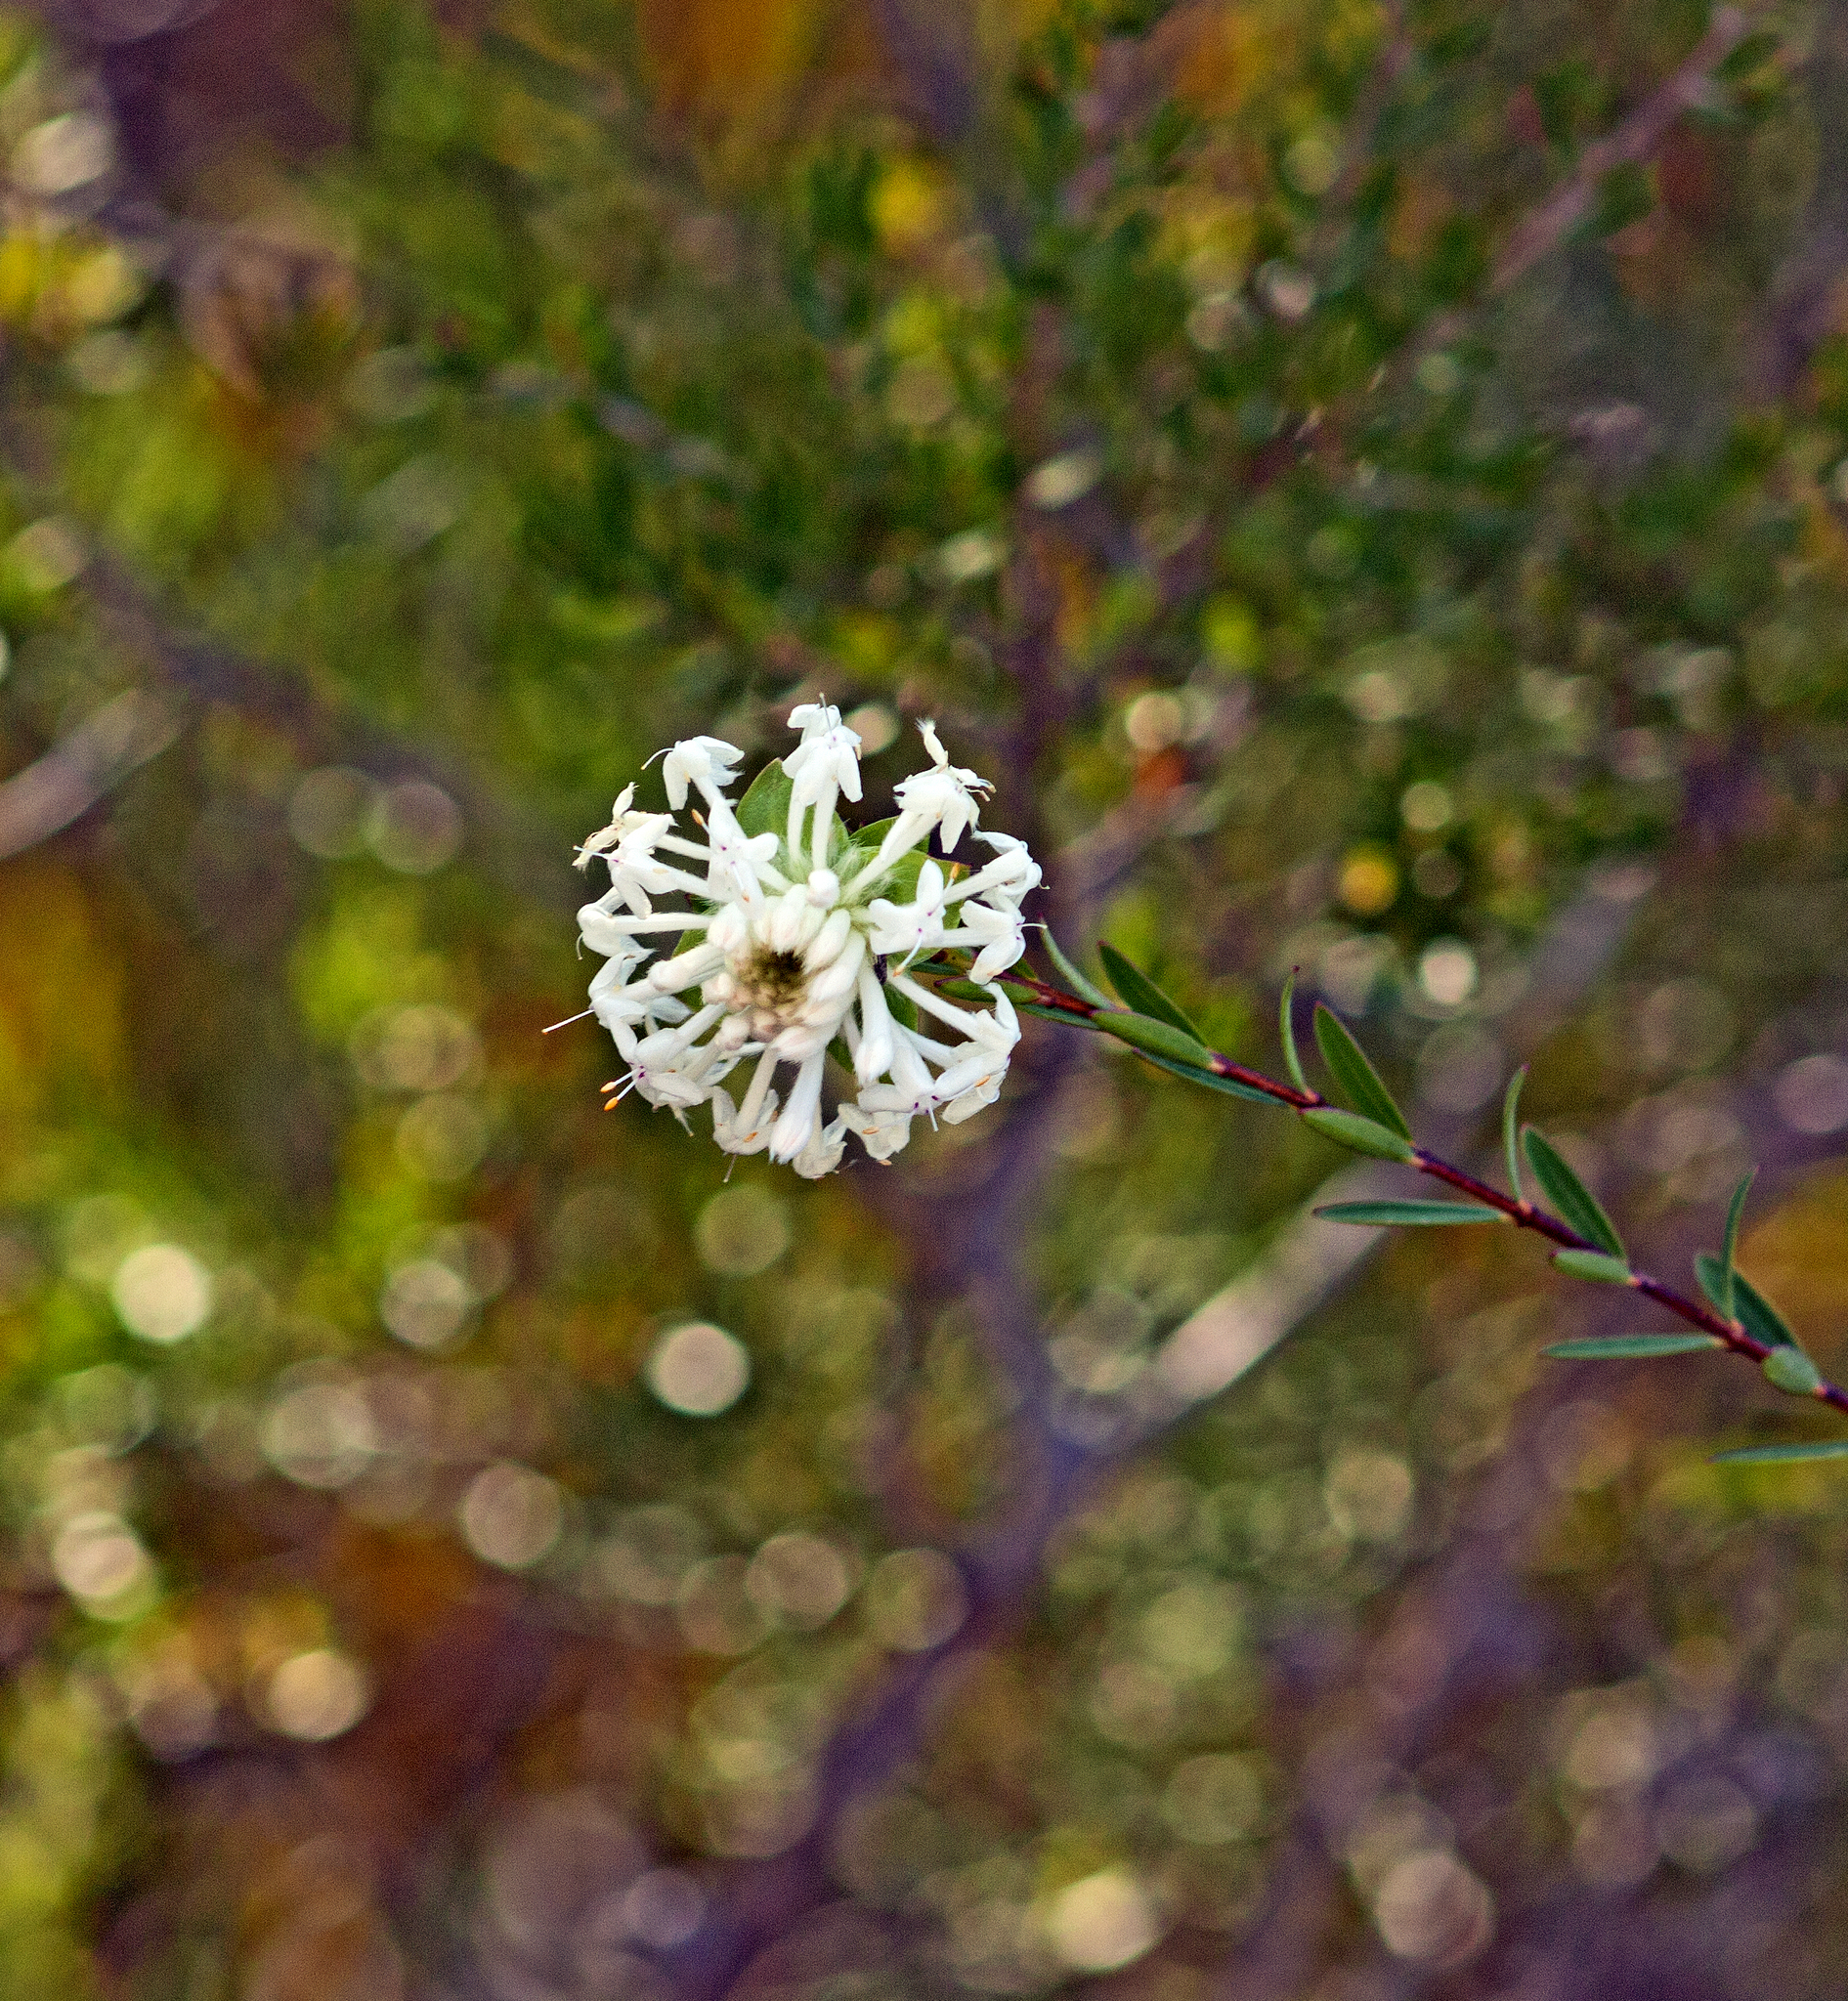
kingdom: Plantae
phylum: Tracheophyta
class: Magnoliopsida
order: Malvales
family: Thymelaeaceae
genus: Pimelea
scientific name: Pimelea linifolia
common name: Queen-of-the-bush
